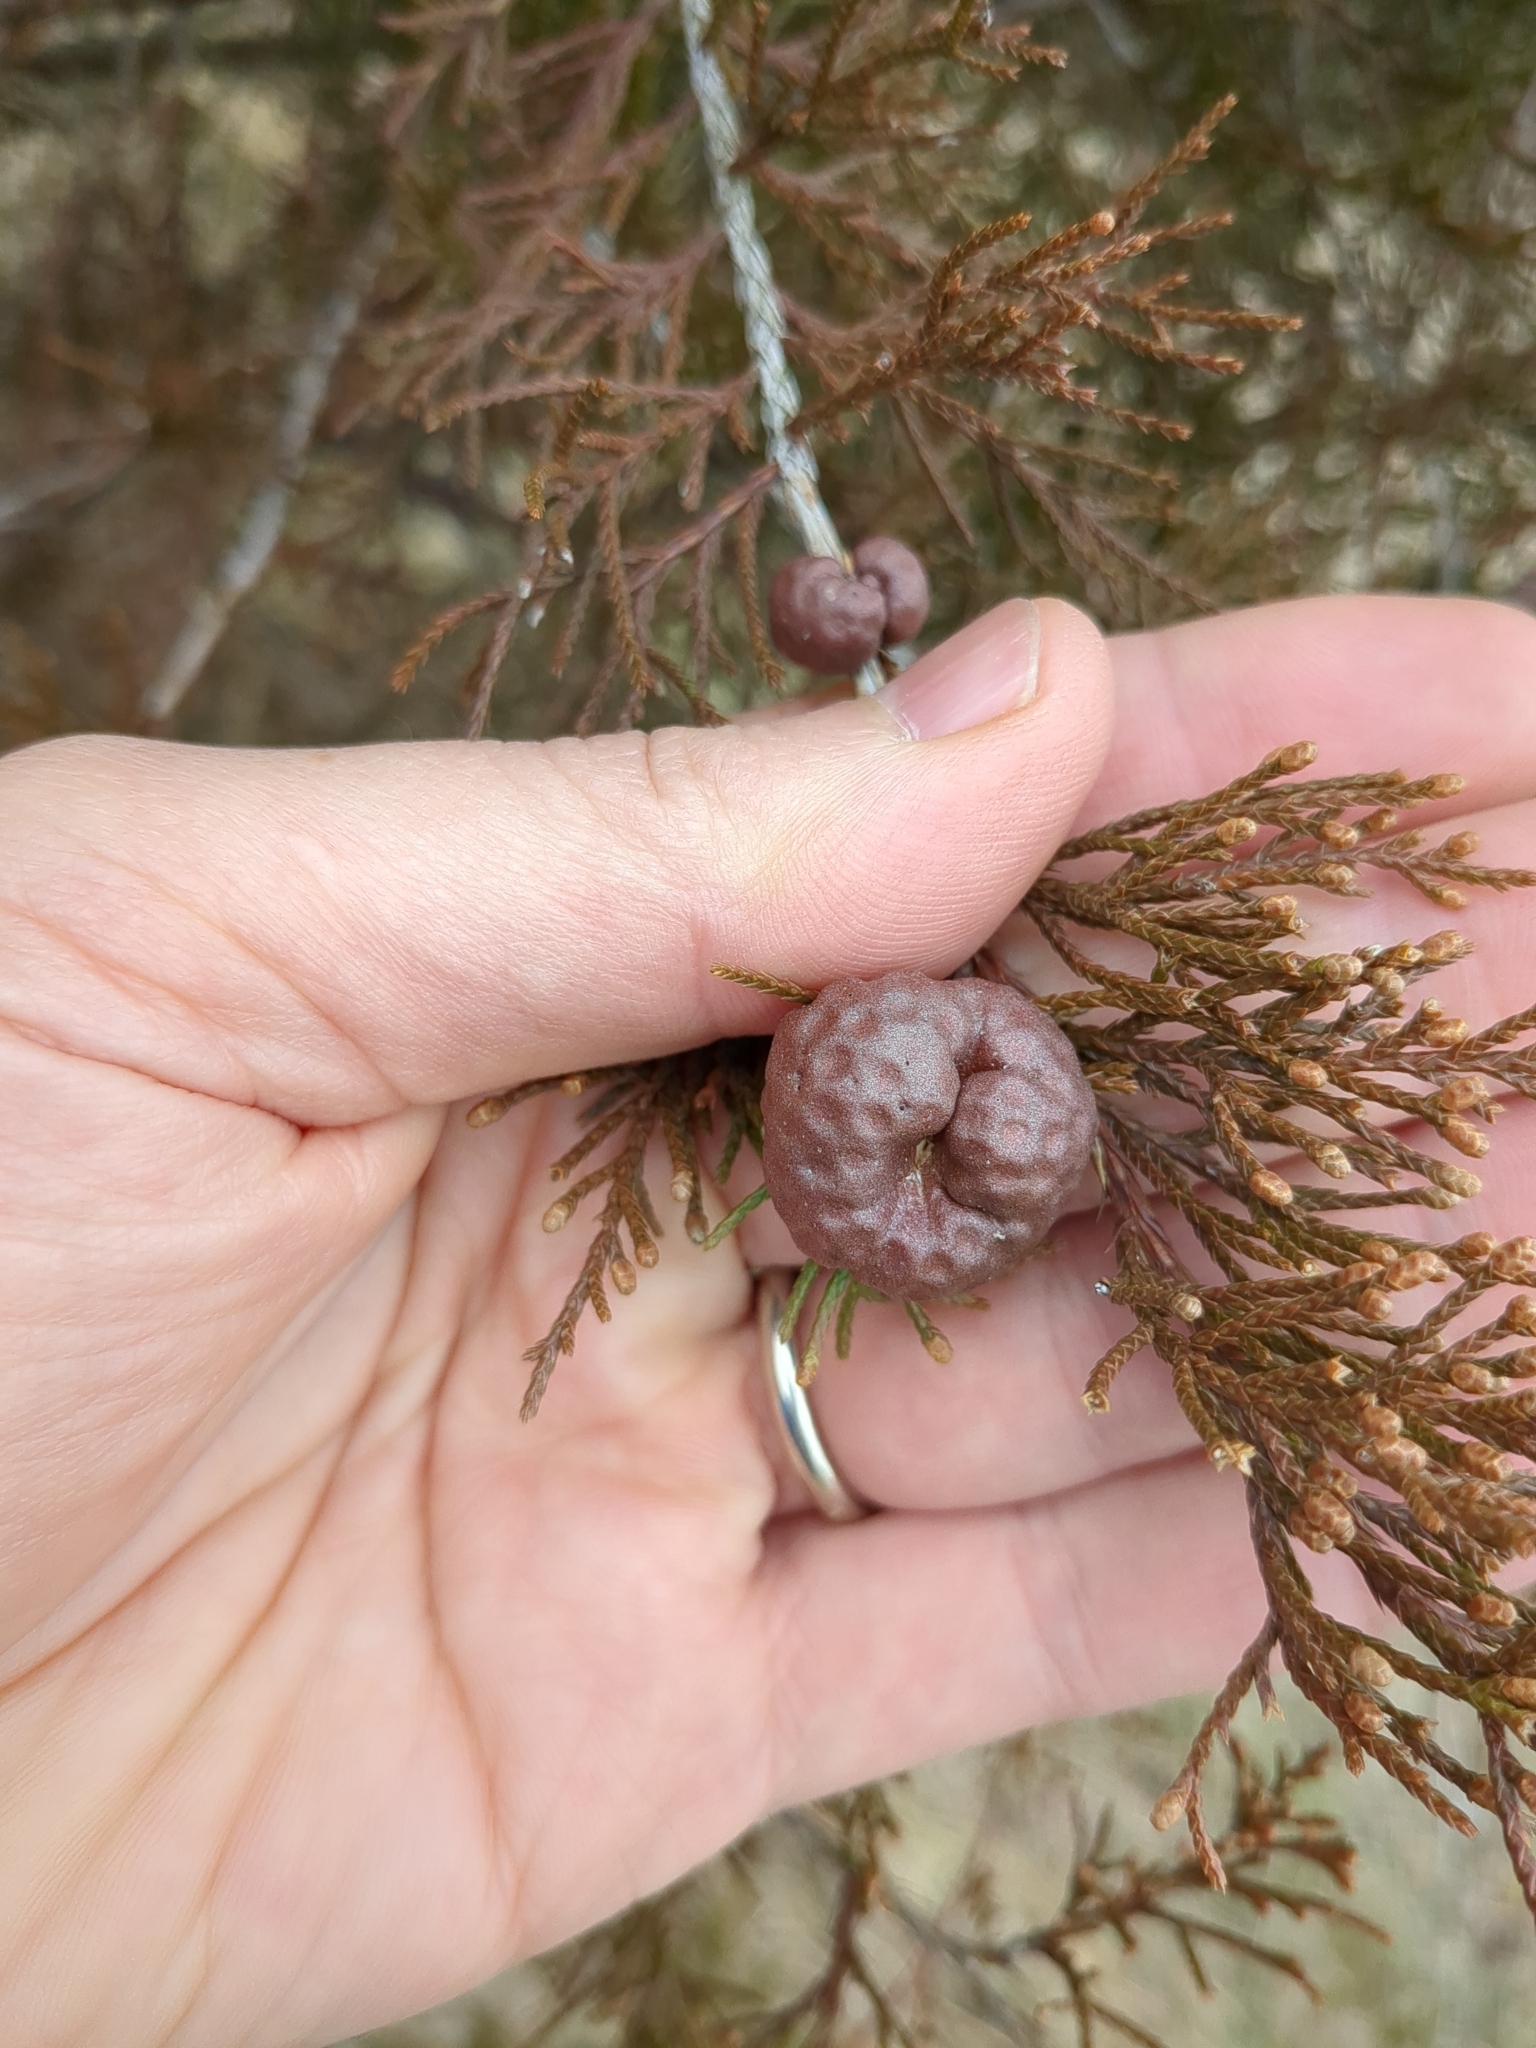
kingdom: Fungi
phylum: Basidiomycota
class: Pucciniomycetes
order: Pucciniales
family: Gymnosporangiaceae
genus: Gymnosporangium
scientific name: Gymnosporangium juniperi-virginianae
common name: Juniper-apple rust
